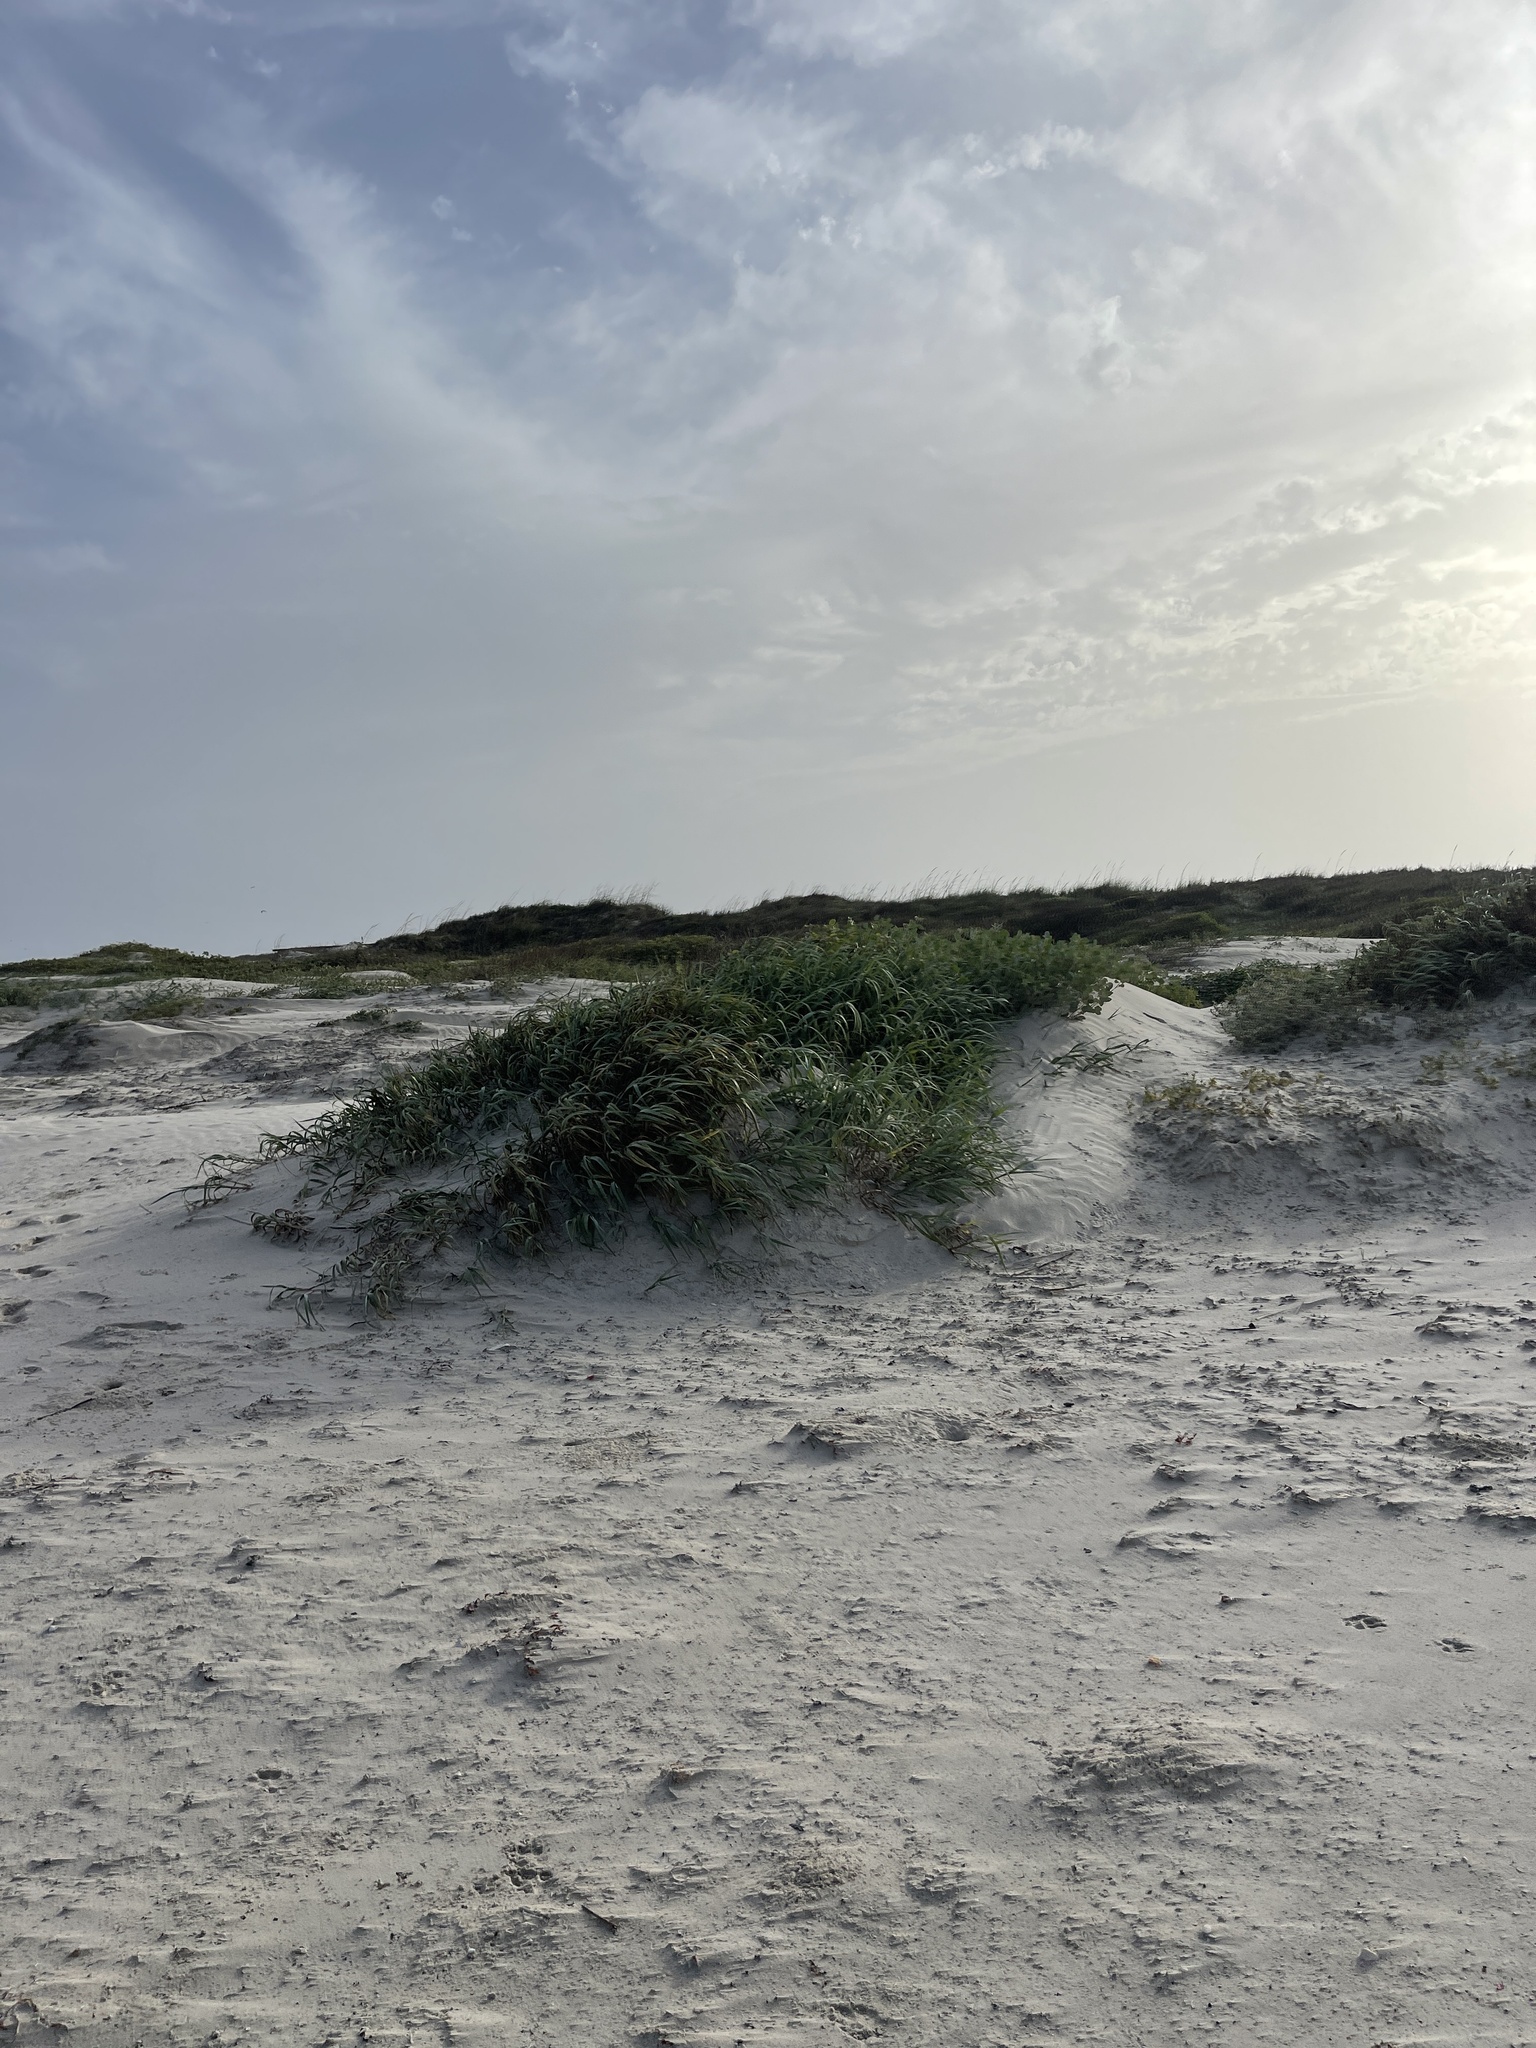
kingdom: Plantae
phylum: Tracheophyta
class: Liliopsida
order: Poales
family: Poaceae
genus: Panicum
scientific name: Panicum amarum
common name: Bitter panicum
